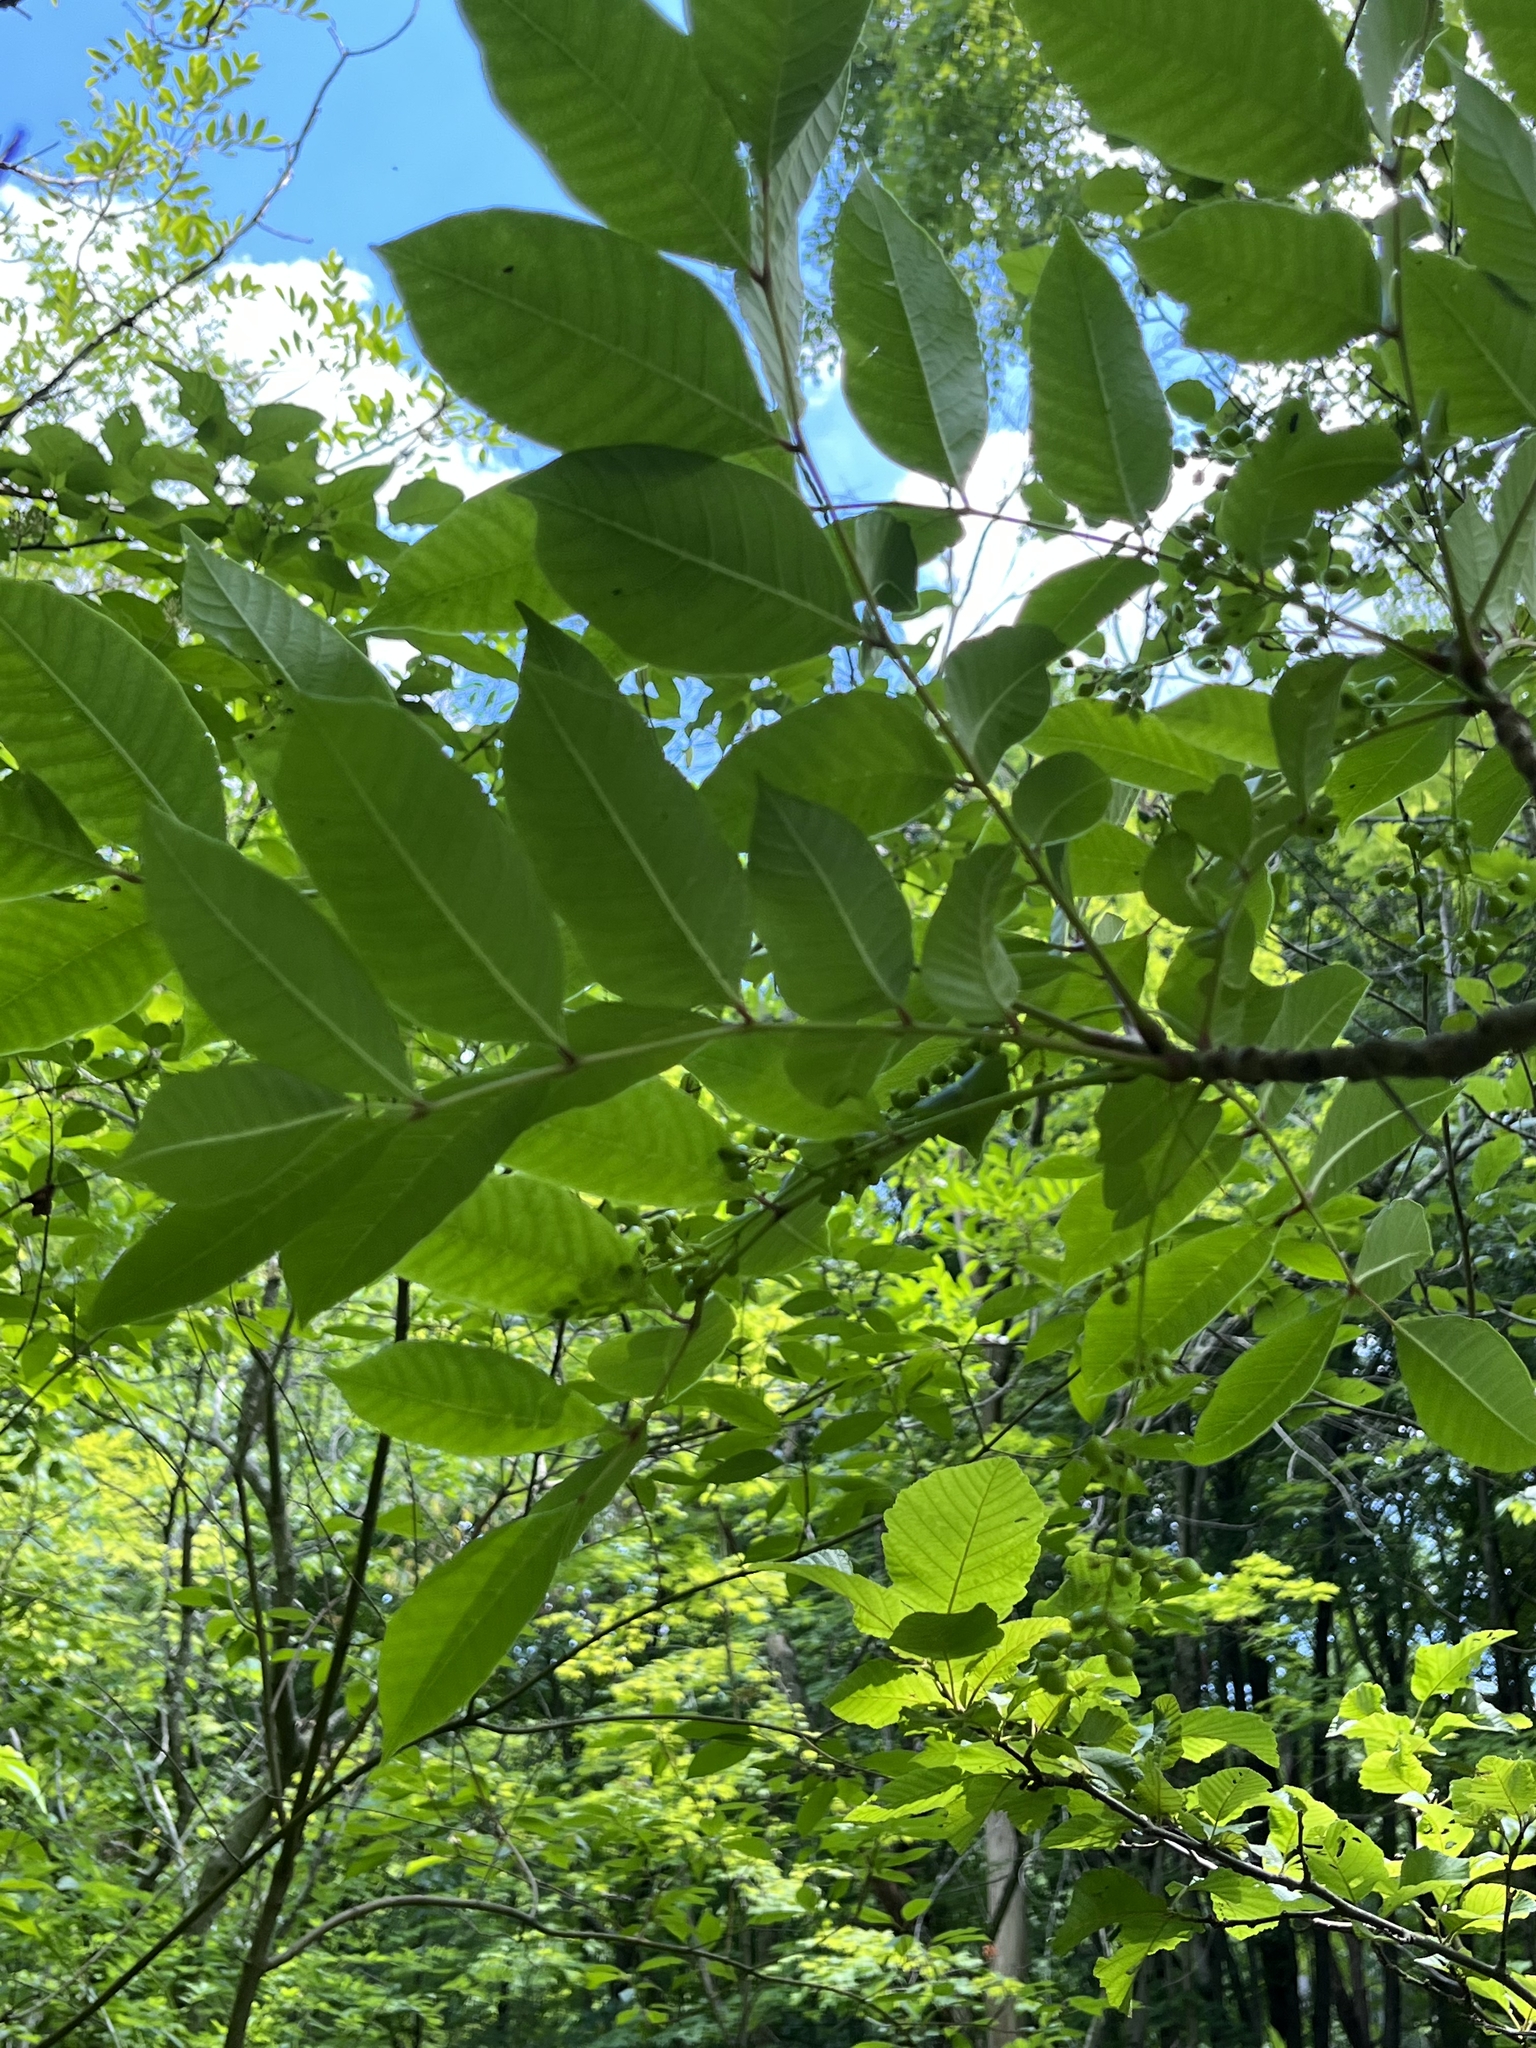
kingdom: Plantae
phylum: Tracheophyta
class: Magnoliopsida
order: Sapindales
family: Anacardiaceae
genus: Toxicodendron
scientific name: Toxicodendron vernix
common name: Poison sumac
